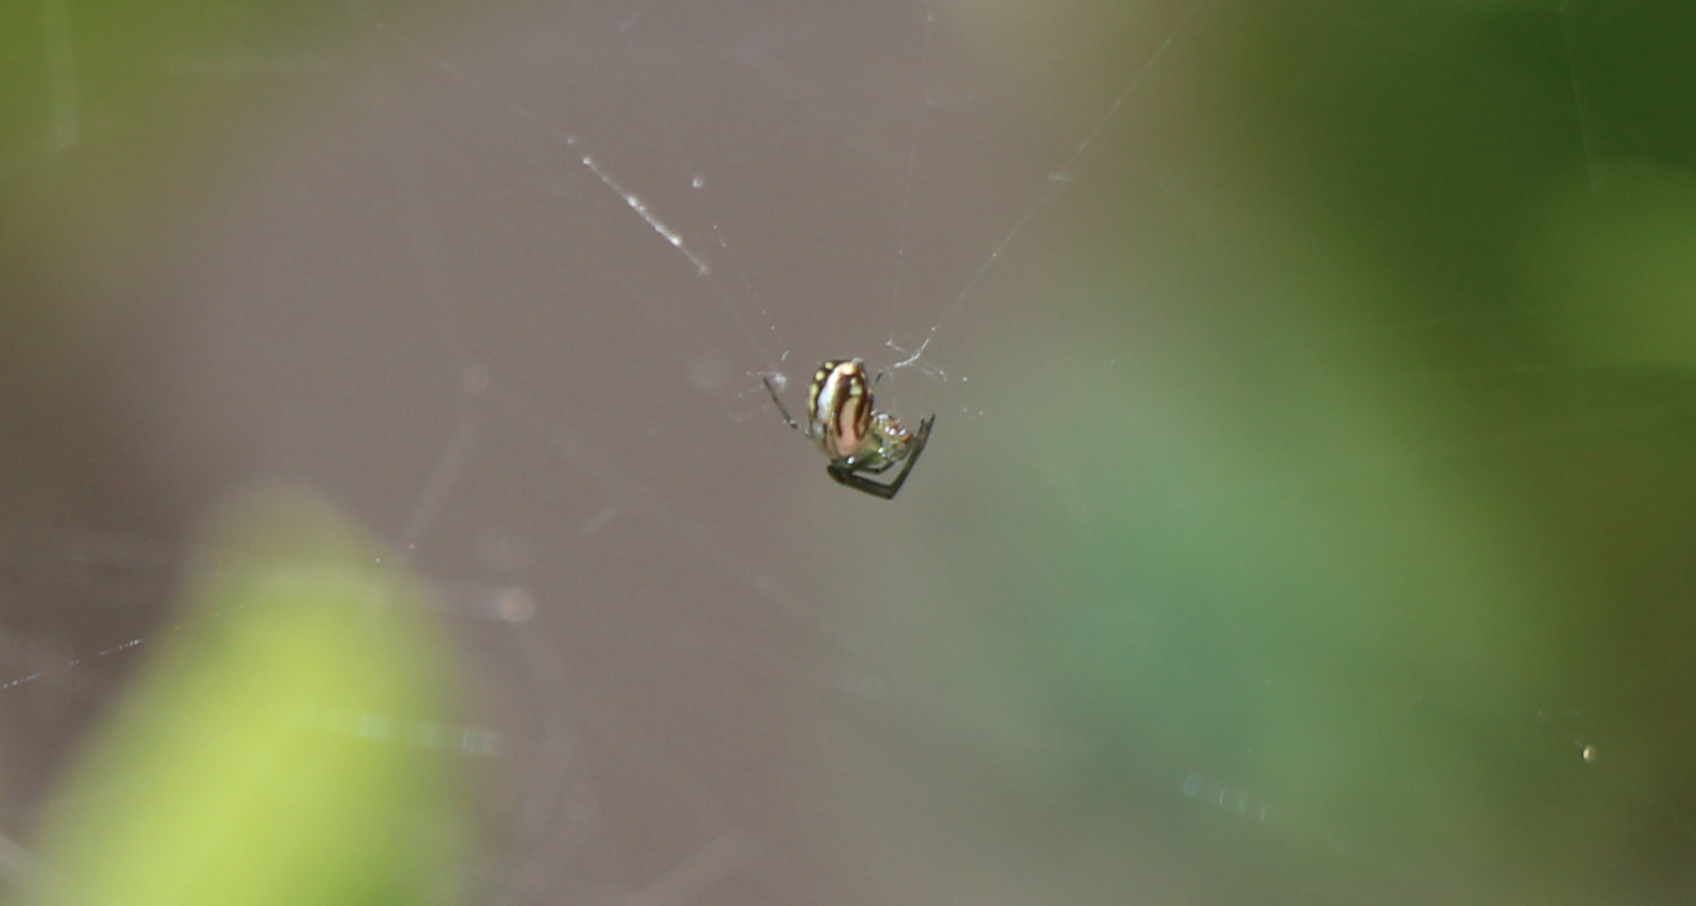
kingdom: Animalia
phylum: Arthropoda
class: Arachnida
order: Araneae
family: Tetragnathidae
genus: Leucauge
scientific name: Leucauge argyra
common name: Longjawed orb weavers
